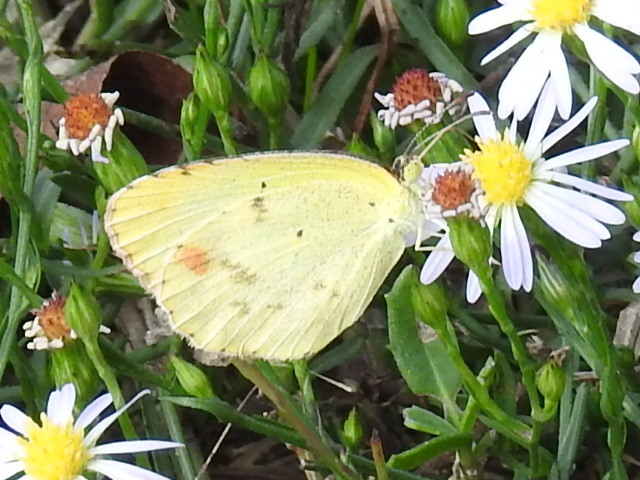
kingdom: Animalia
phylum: Arthropoda
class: Insecta
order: Lepidoptera
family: Pieridae
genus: Pyrisitia
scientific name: Pyrisitia lisa
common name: Little yellow
